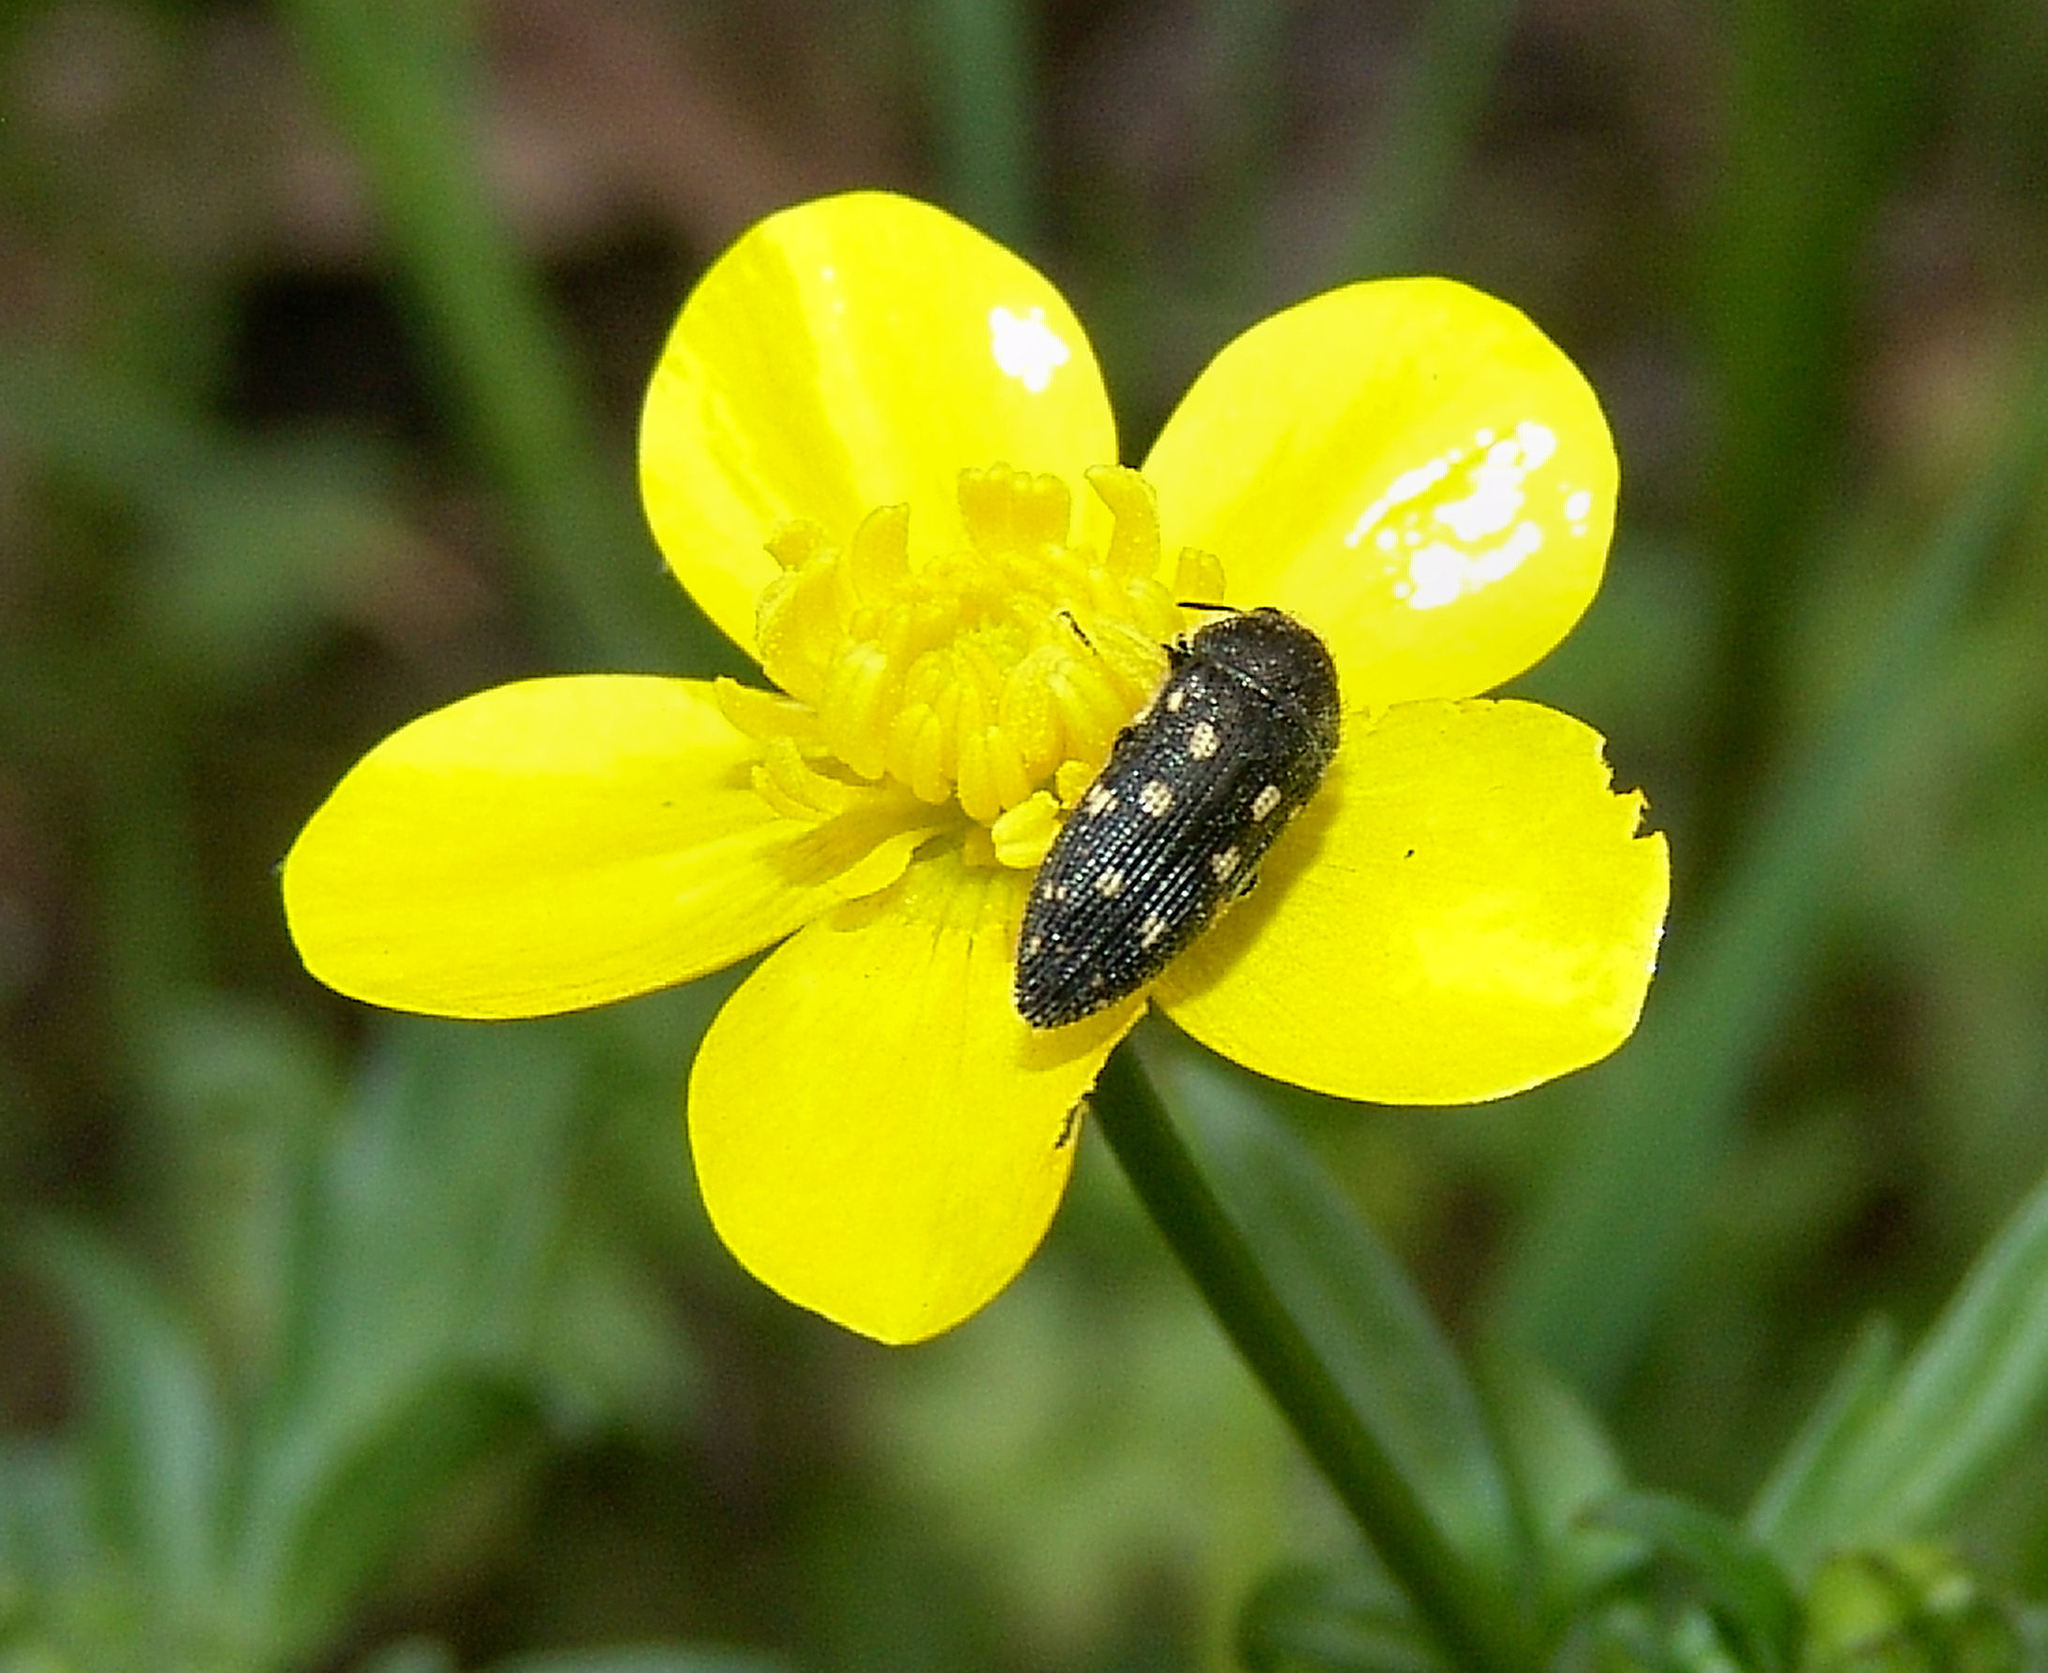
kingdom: Animalia
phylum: Arthropoda
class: Insecta
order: Coleoptera
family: Buprestidae
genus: Acmaeodera
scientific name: Acmaeodera tubulus
